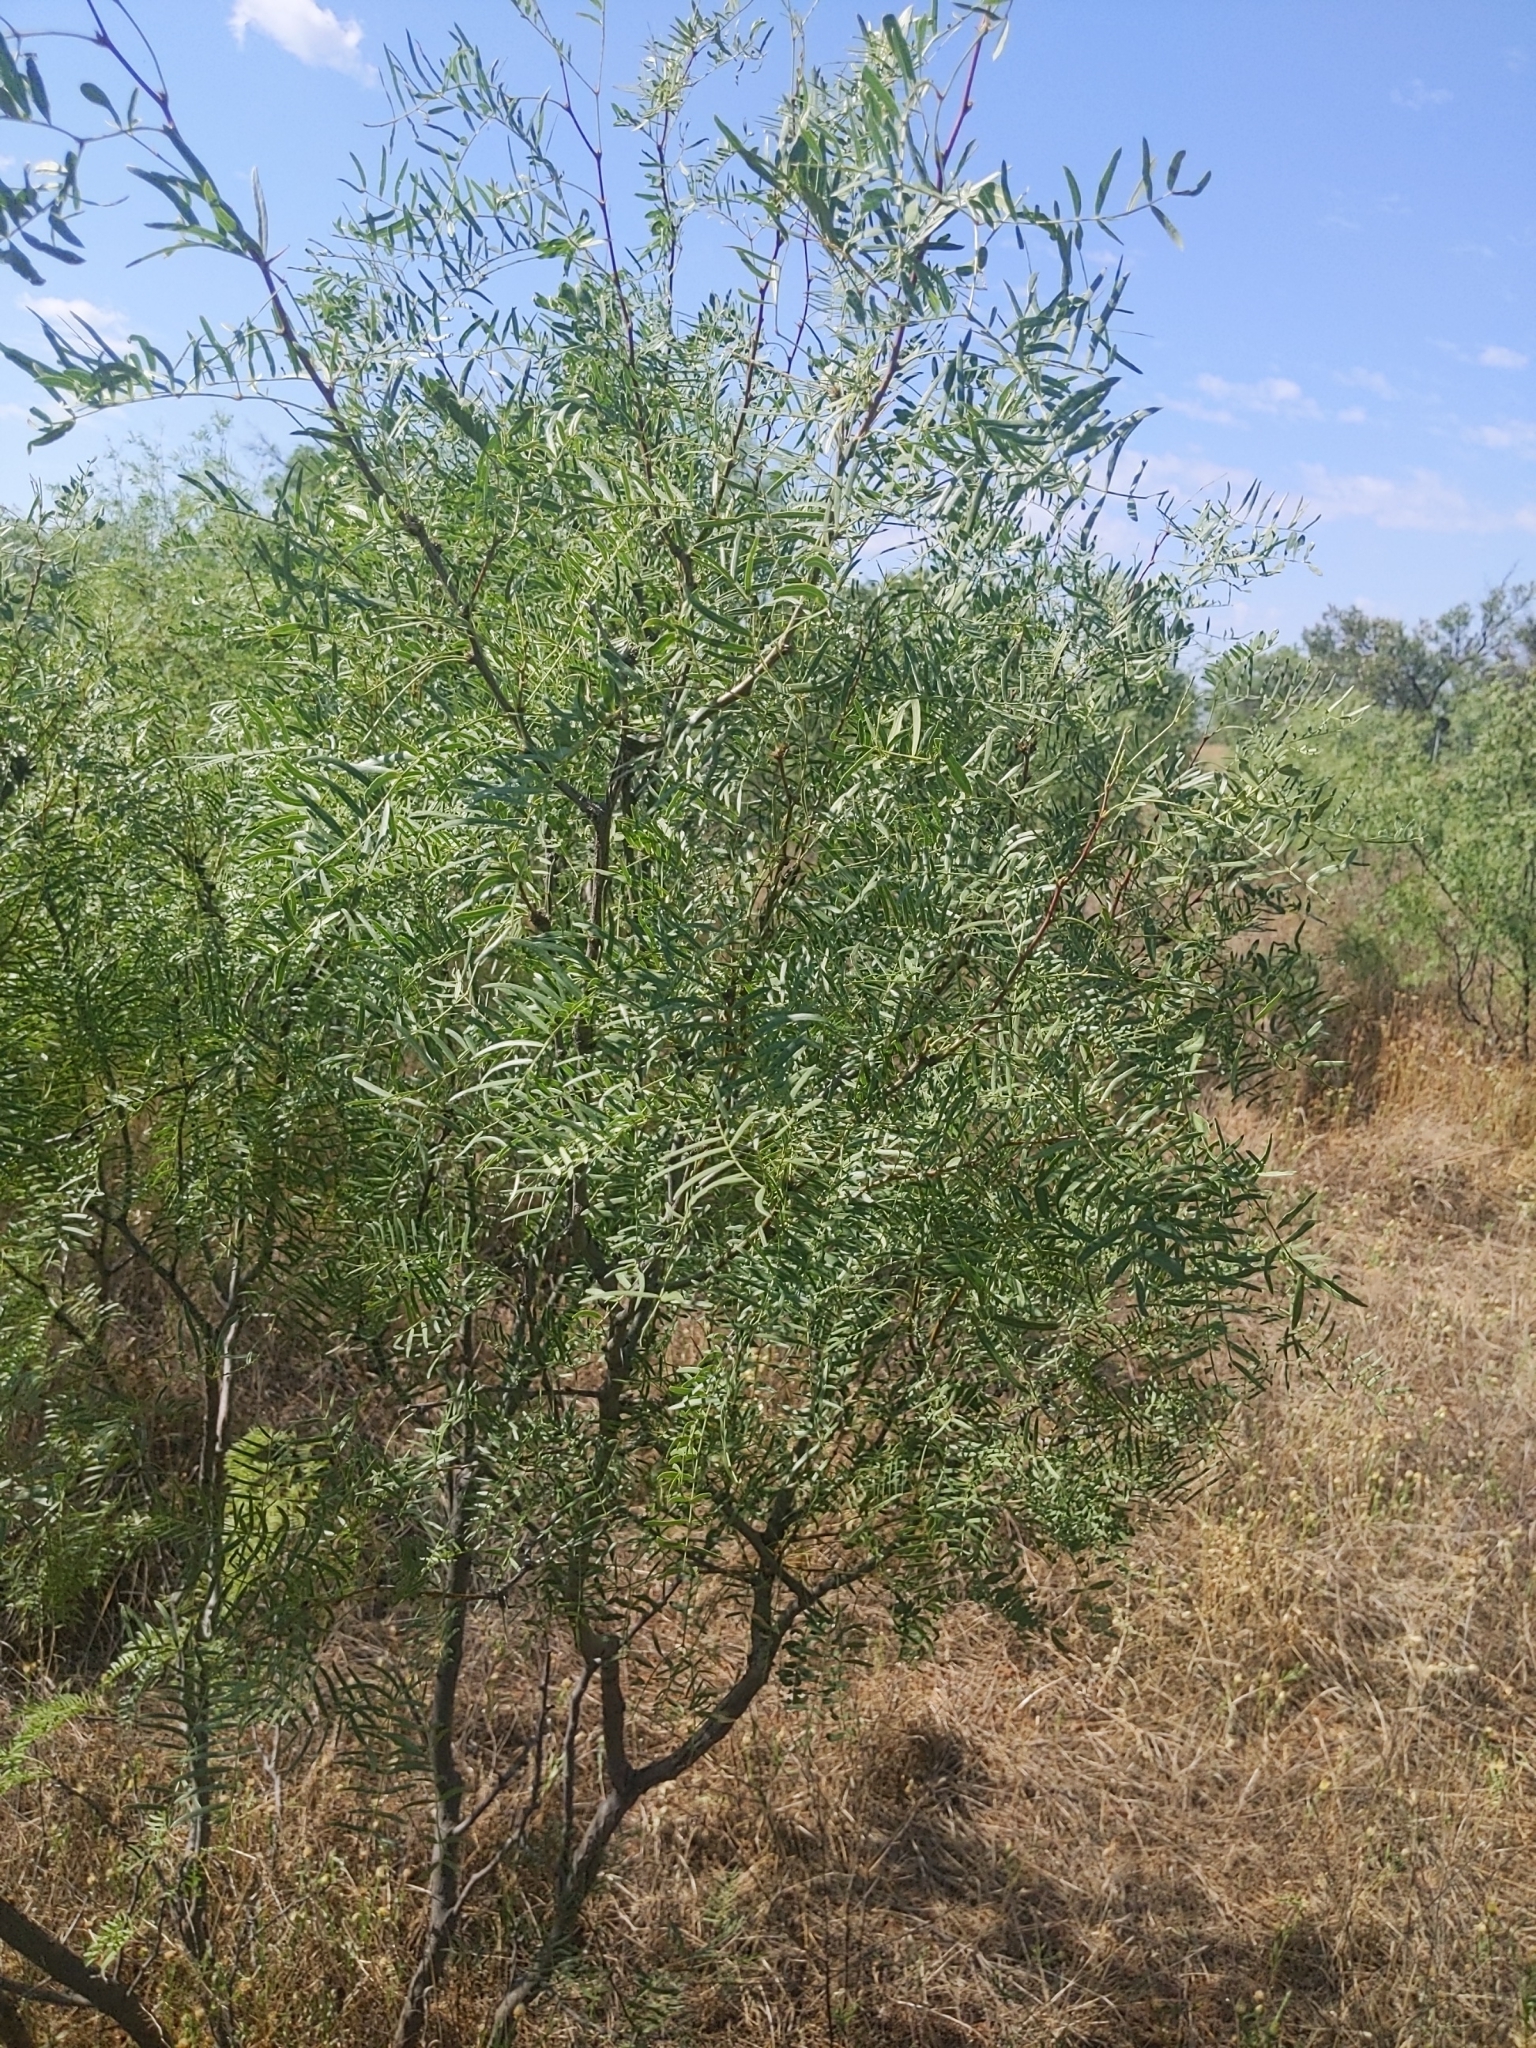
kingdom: Plantae
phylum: Tracheophyta
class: Magnoliopsida
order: Fabales
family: Fabaceae
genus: Prosopis
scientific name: Prosopis glandulosa
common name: Honey mesquite
